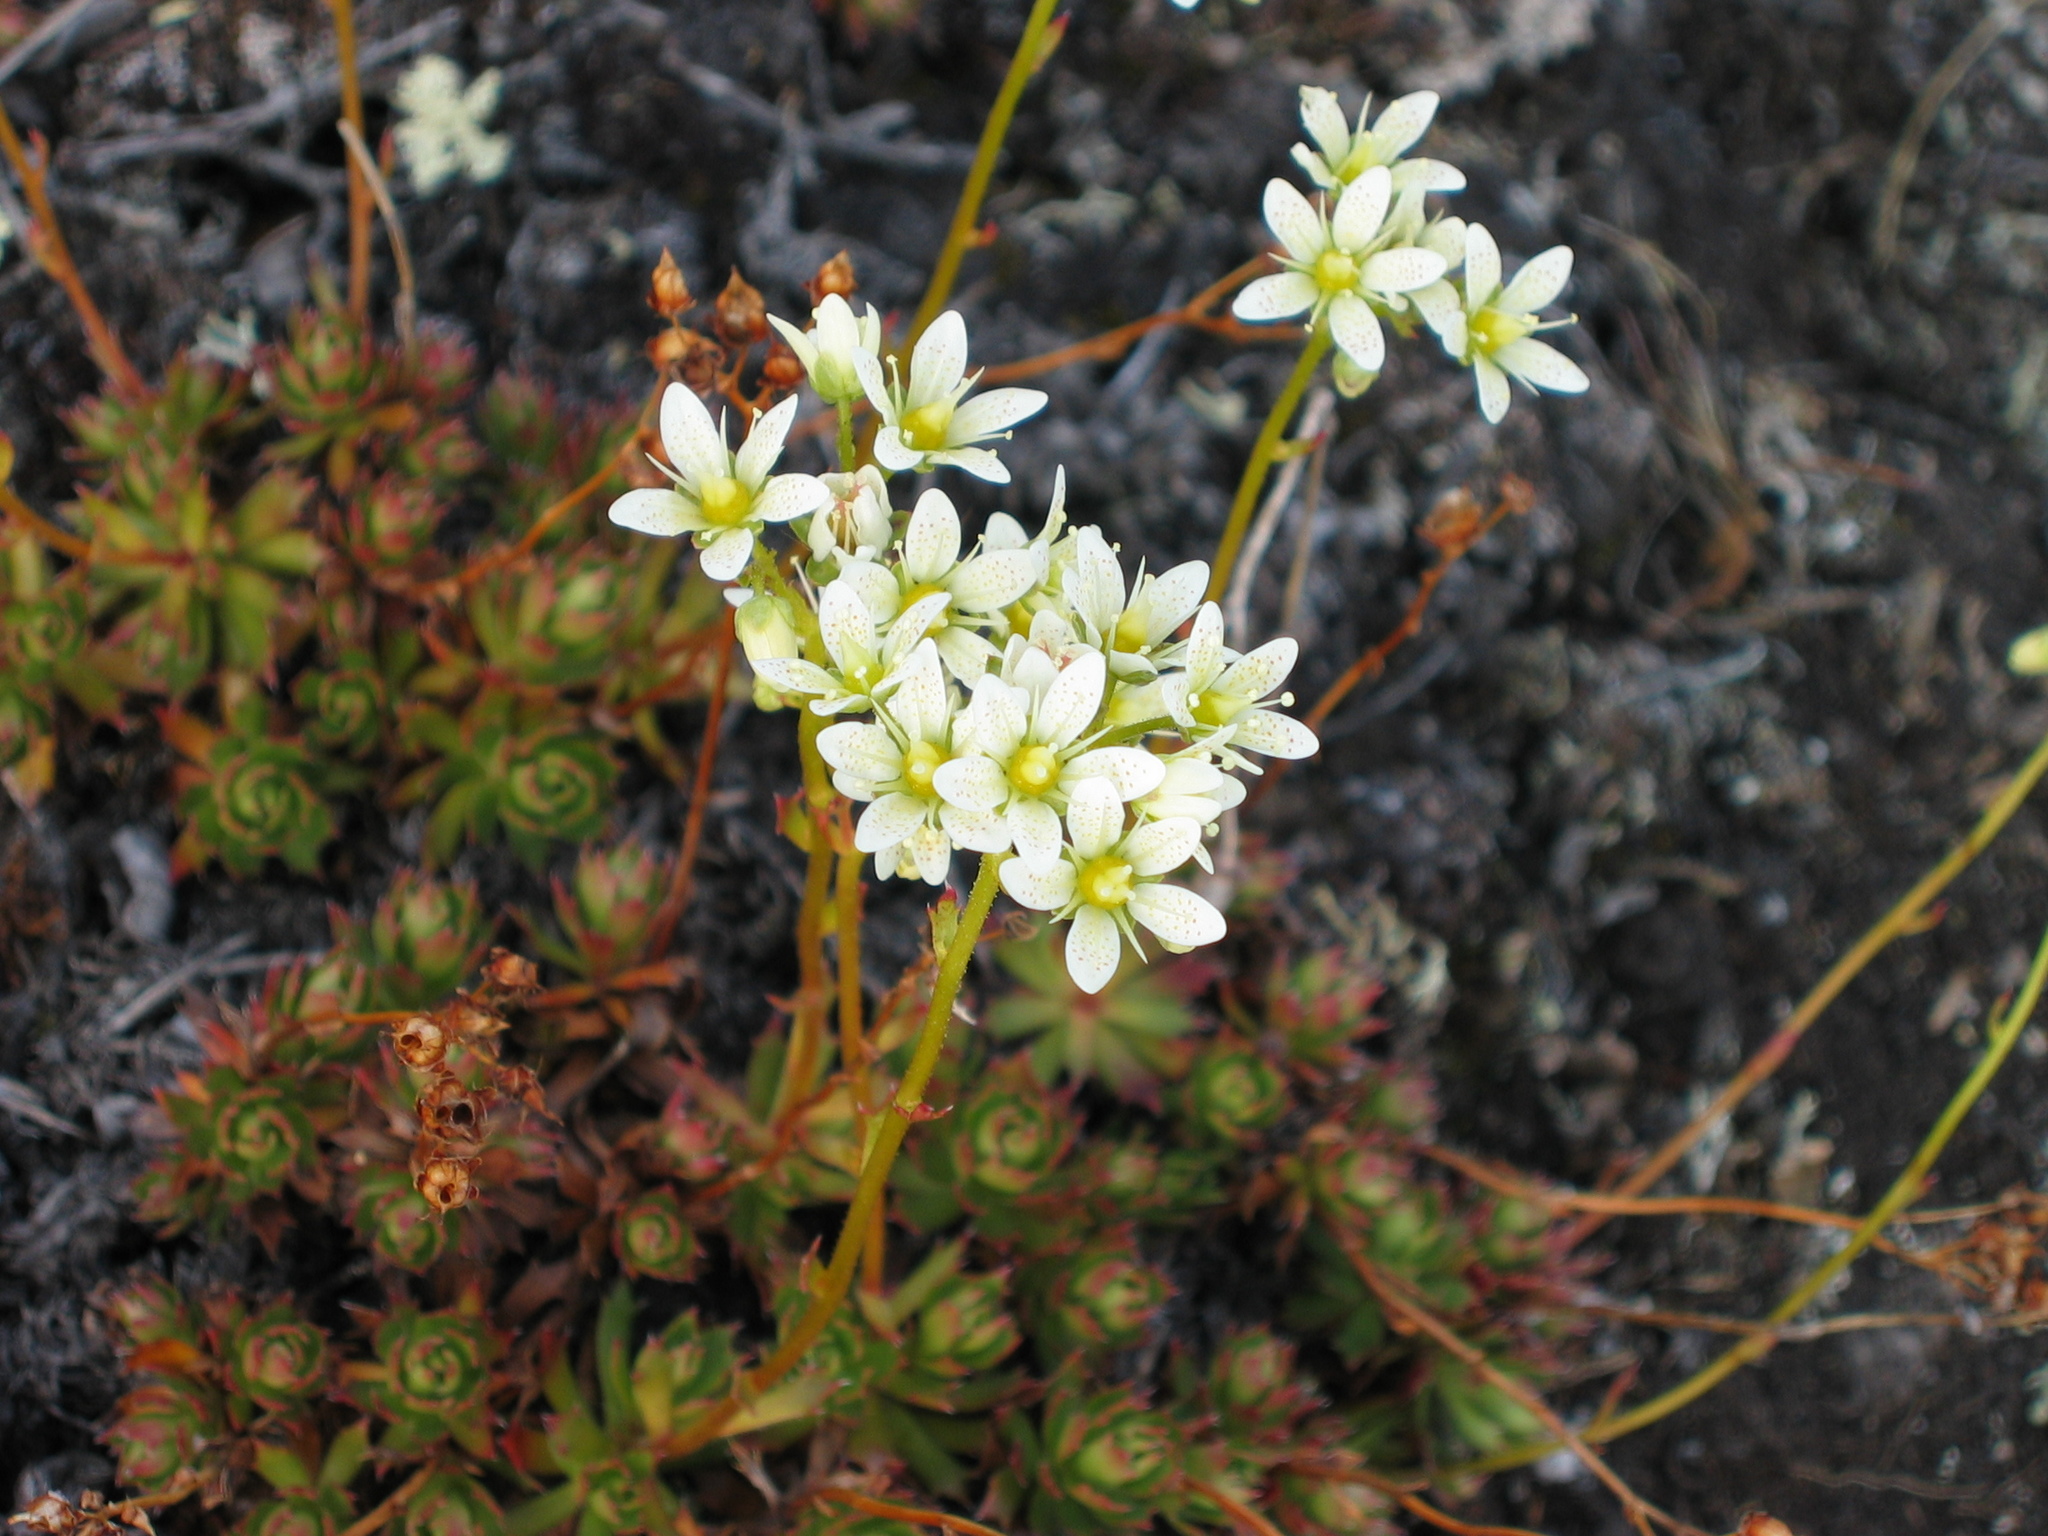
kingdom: Plantae
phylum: Tracheophyta
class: Magnoliopsida
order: Saxifragales
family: Saxifragaceae
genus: Saxifraga
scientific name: Saxifraga tricuspidata
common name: Prickly saxifrage
